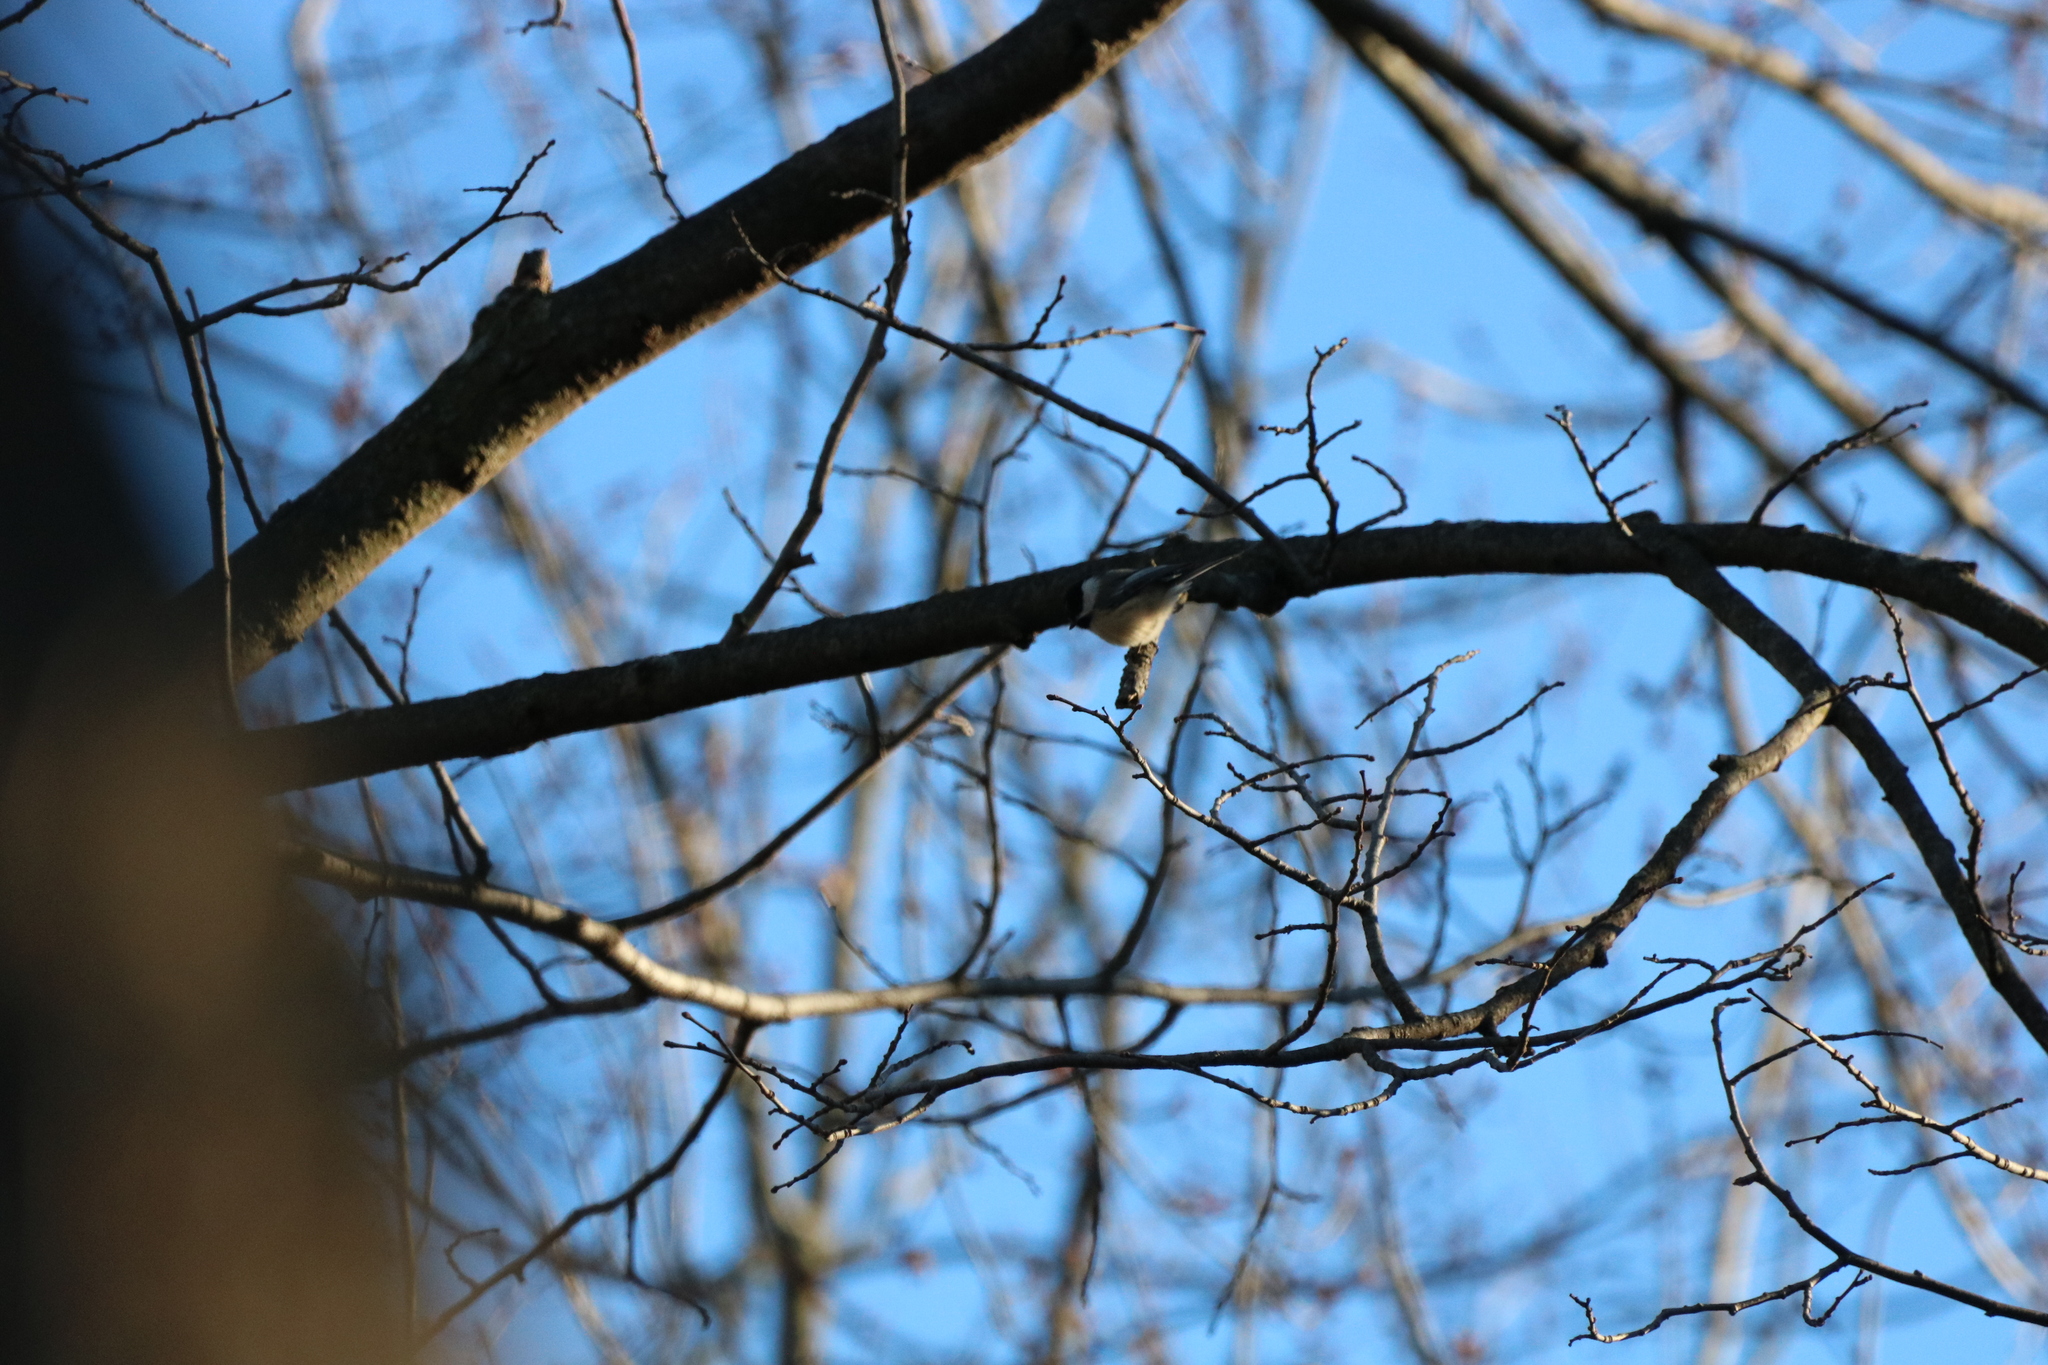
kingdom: Animalia
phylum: Chordata
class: Aves
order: Passeriformes
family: Paridae
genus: Poecile
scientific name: Poecile atricapillus
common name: Black-capped chickadee
